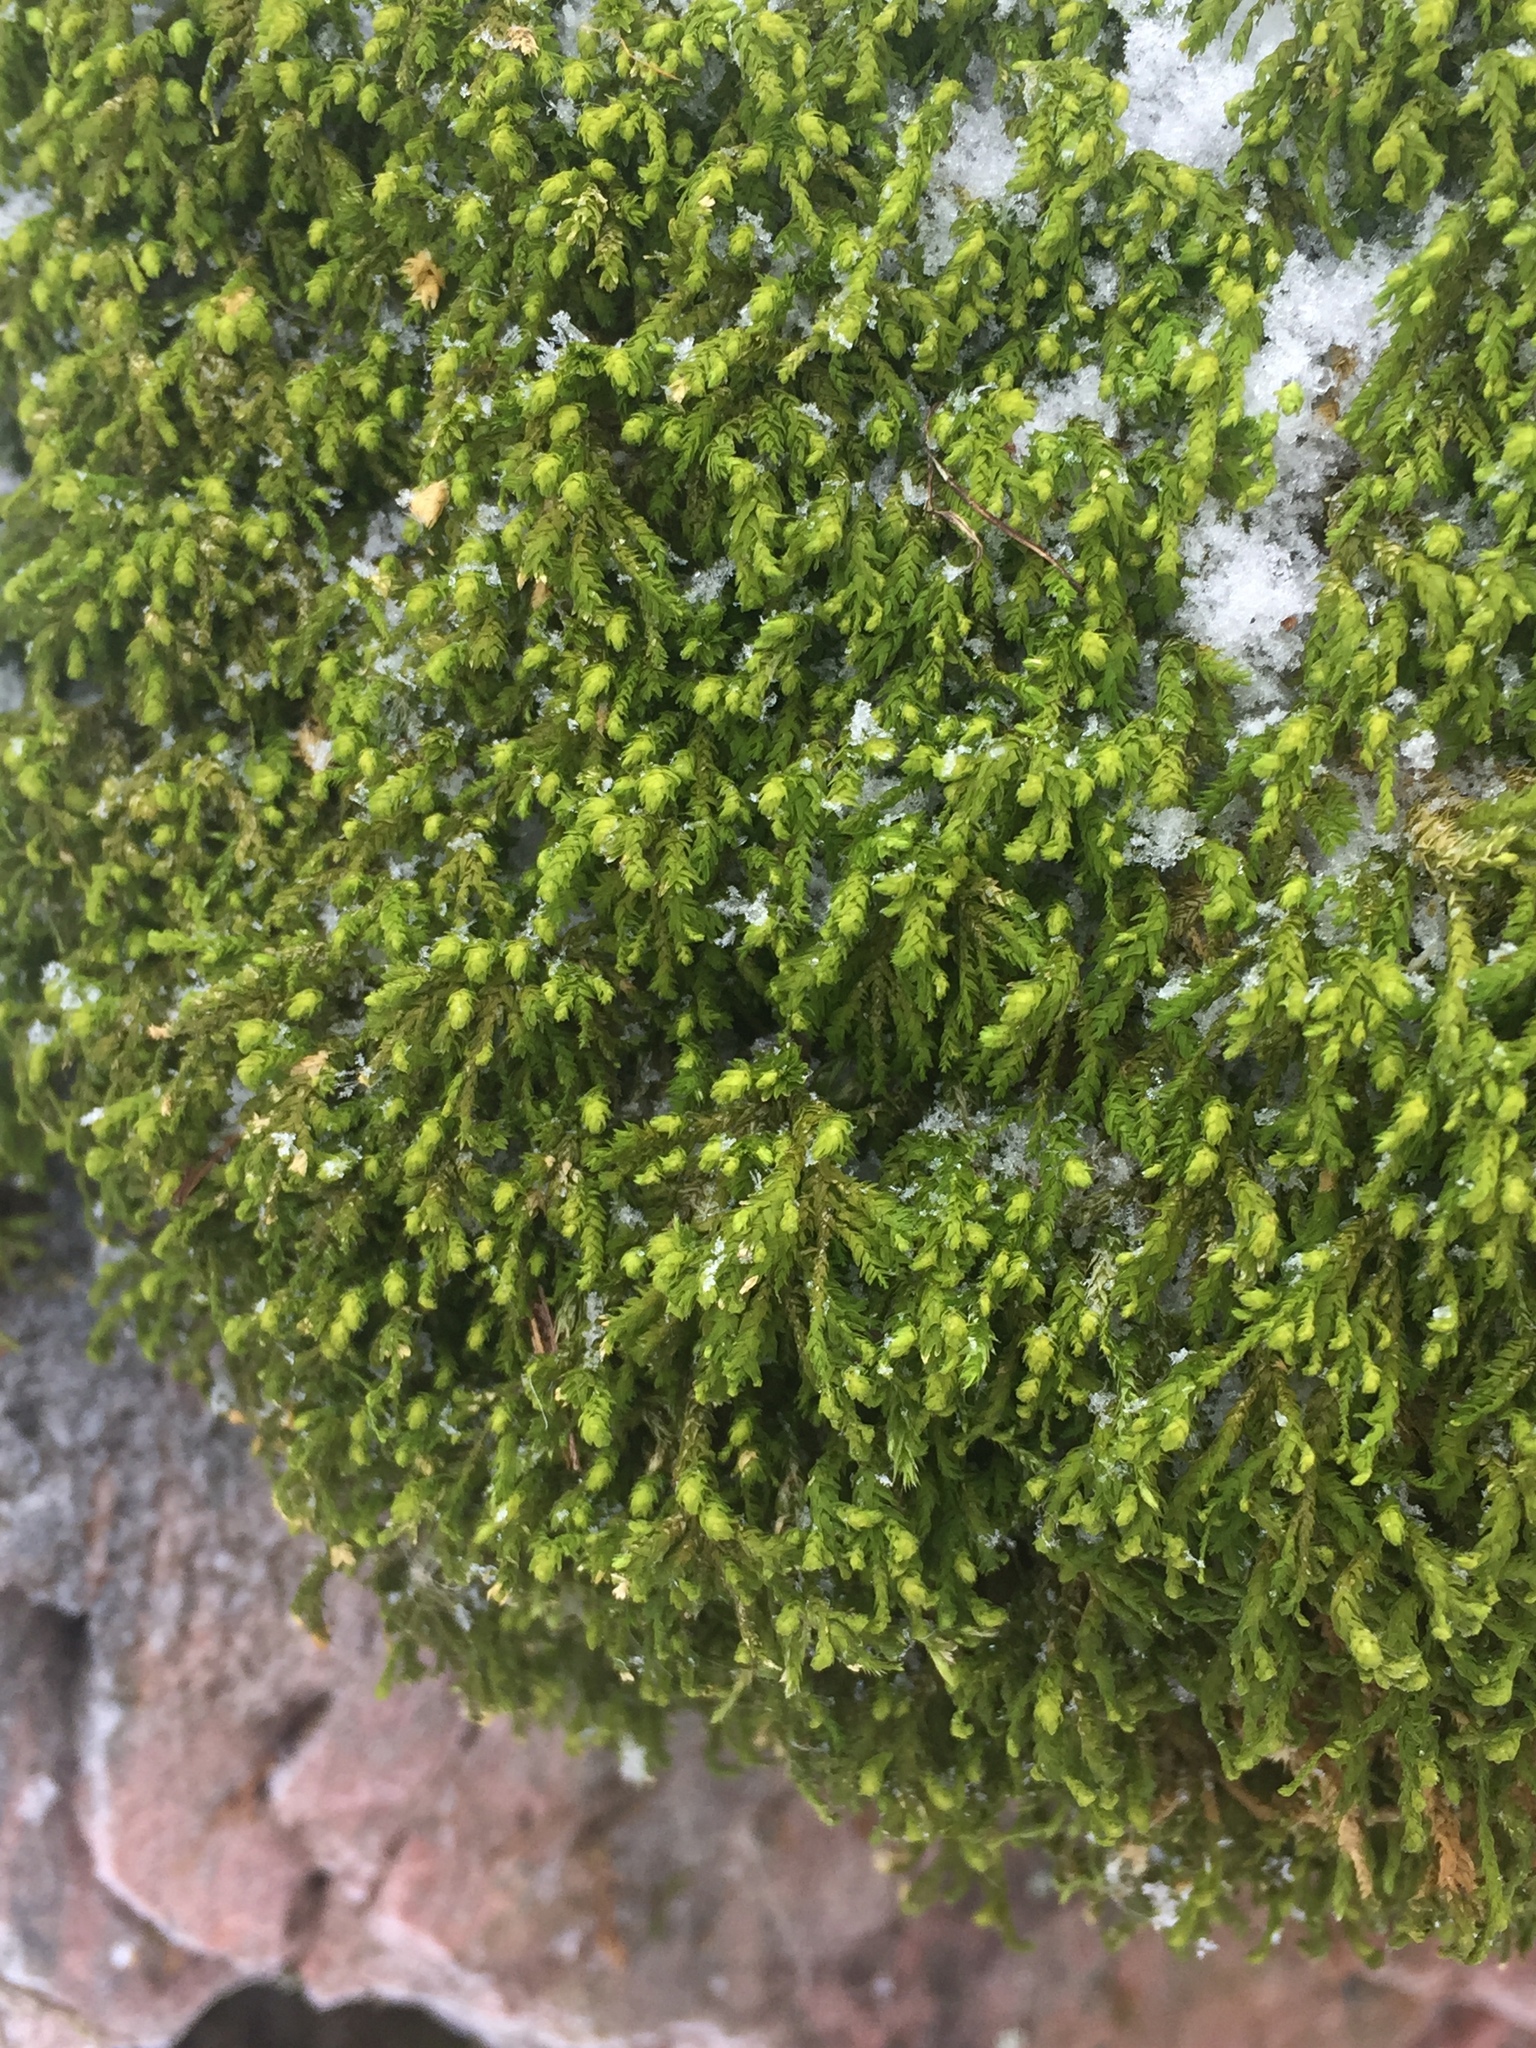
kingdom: Plantae
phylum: Bryophyta
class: Bryopsida
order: Hypnales
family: Neckeraceae
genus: Pseudanomodon
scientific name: Pseudanomodon attenuatus
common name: Tree-skirt moss
